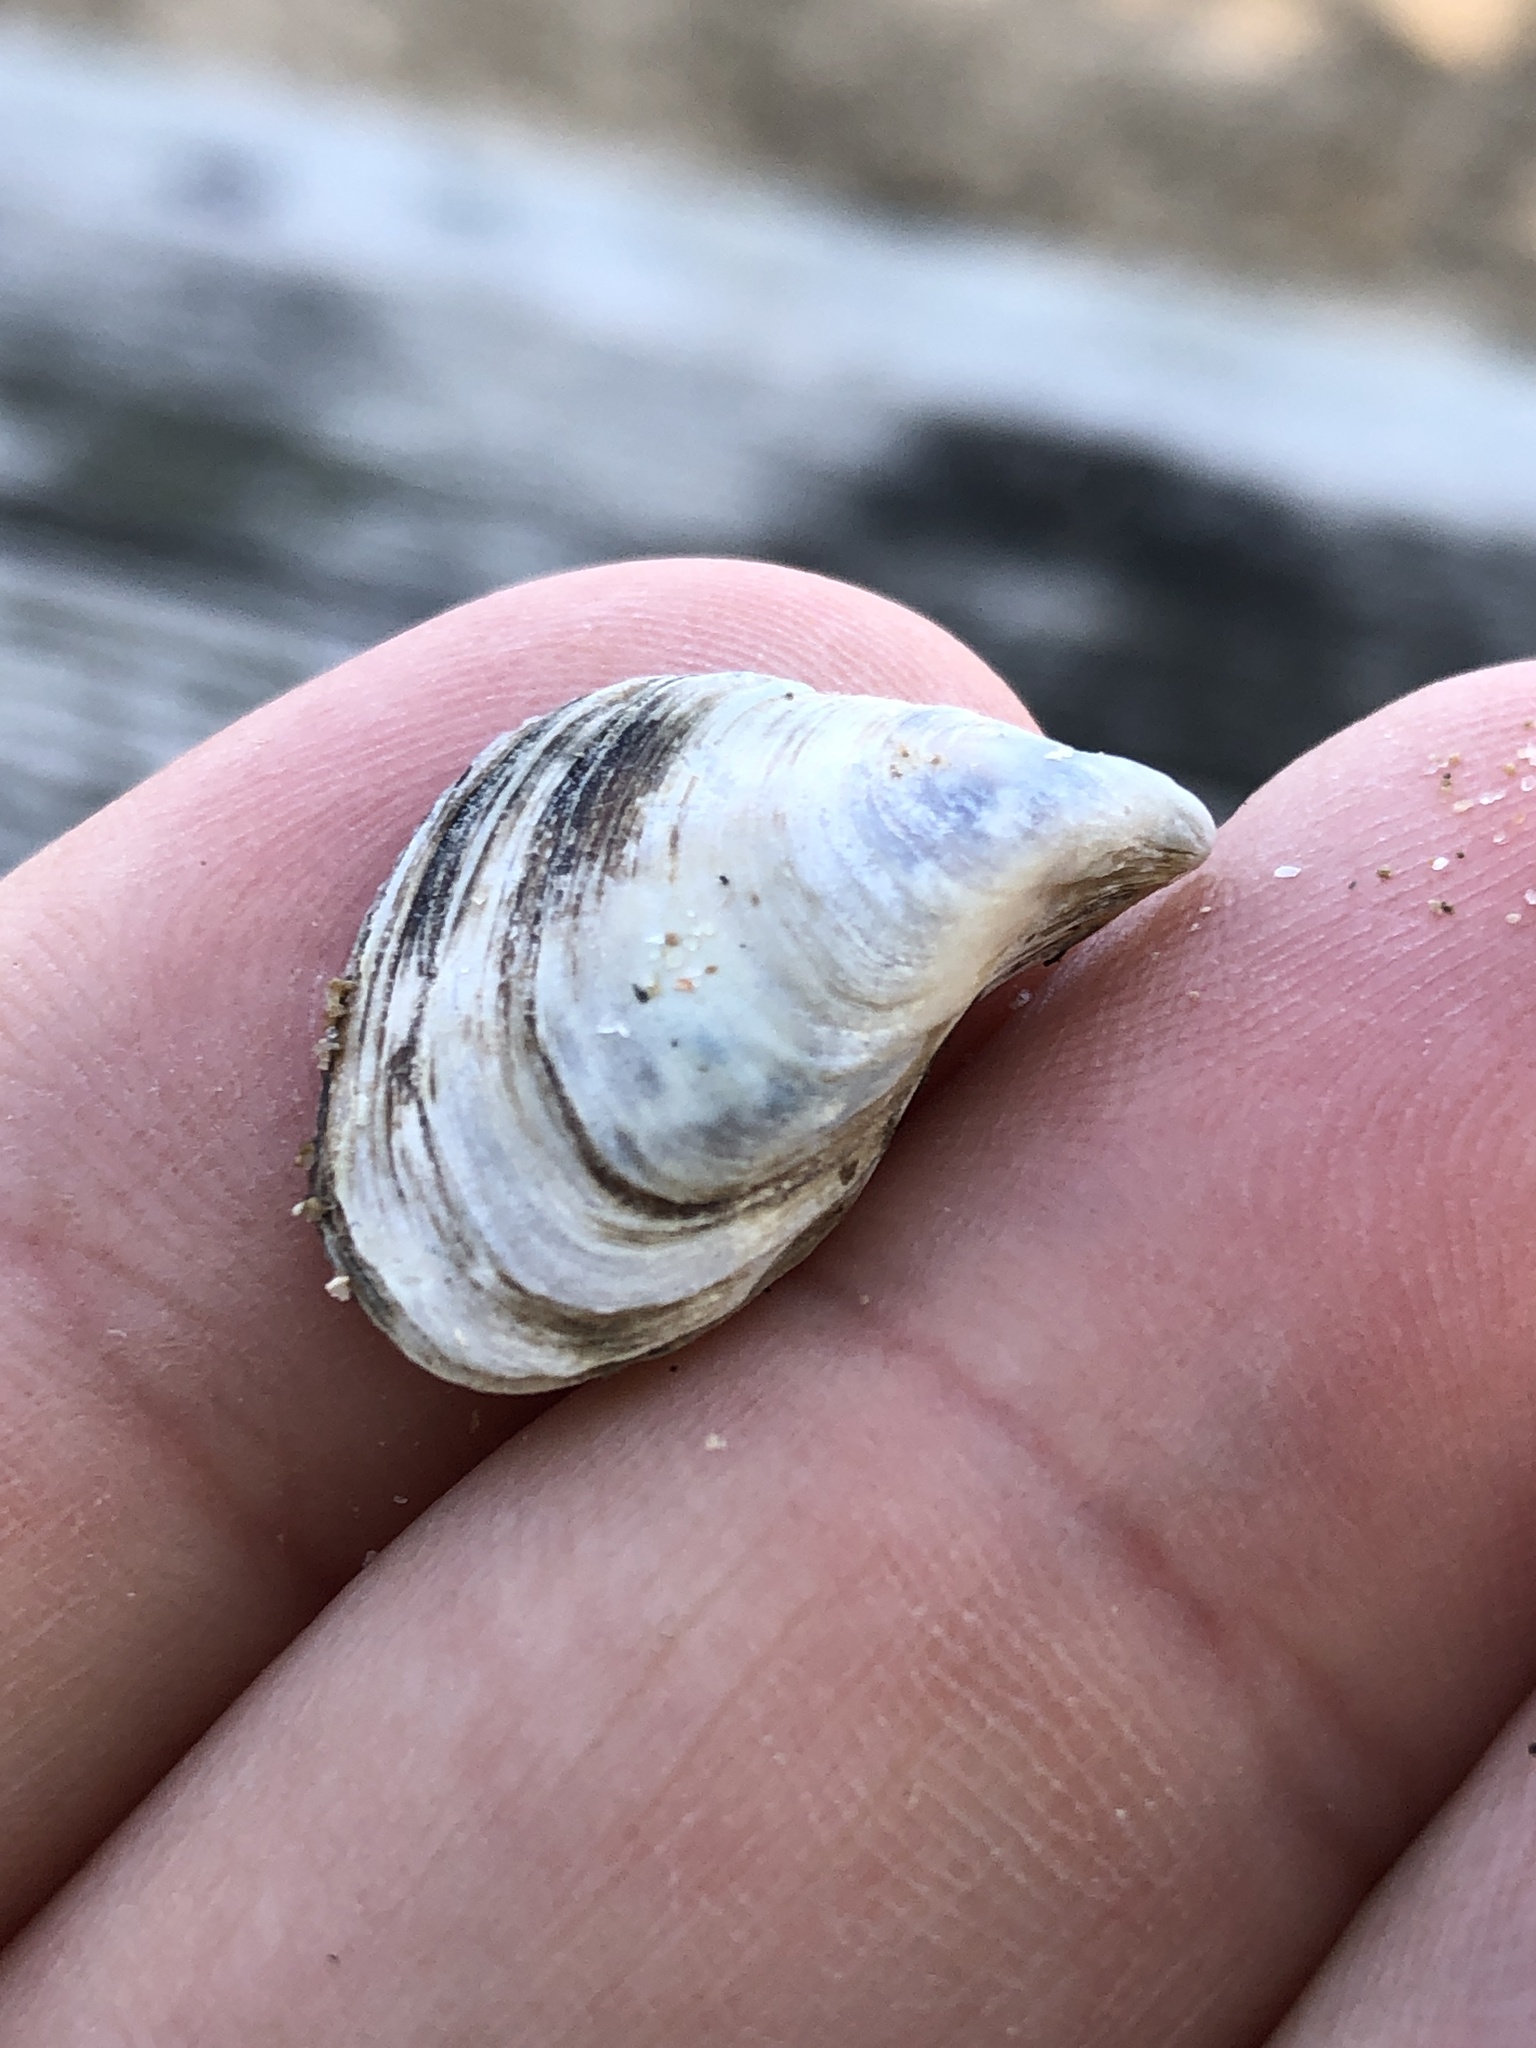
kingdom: Animalia
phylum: Mollusca
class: Bivalvia
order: Myida
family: Dreissenidae
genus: Dreissena
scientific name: Dreissena bugensis
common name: Quagga mussel
